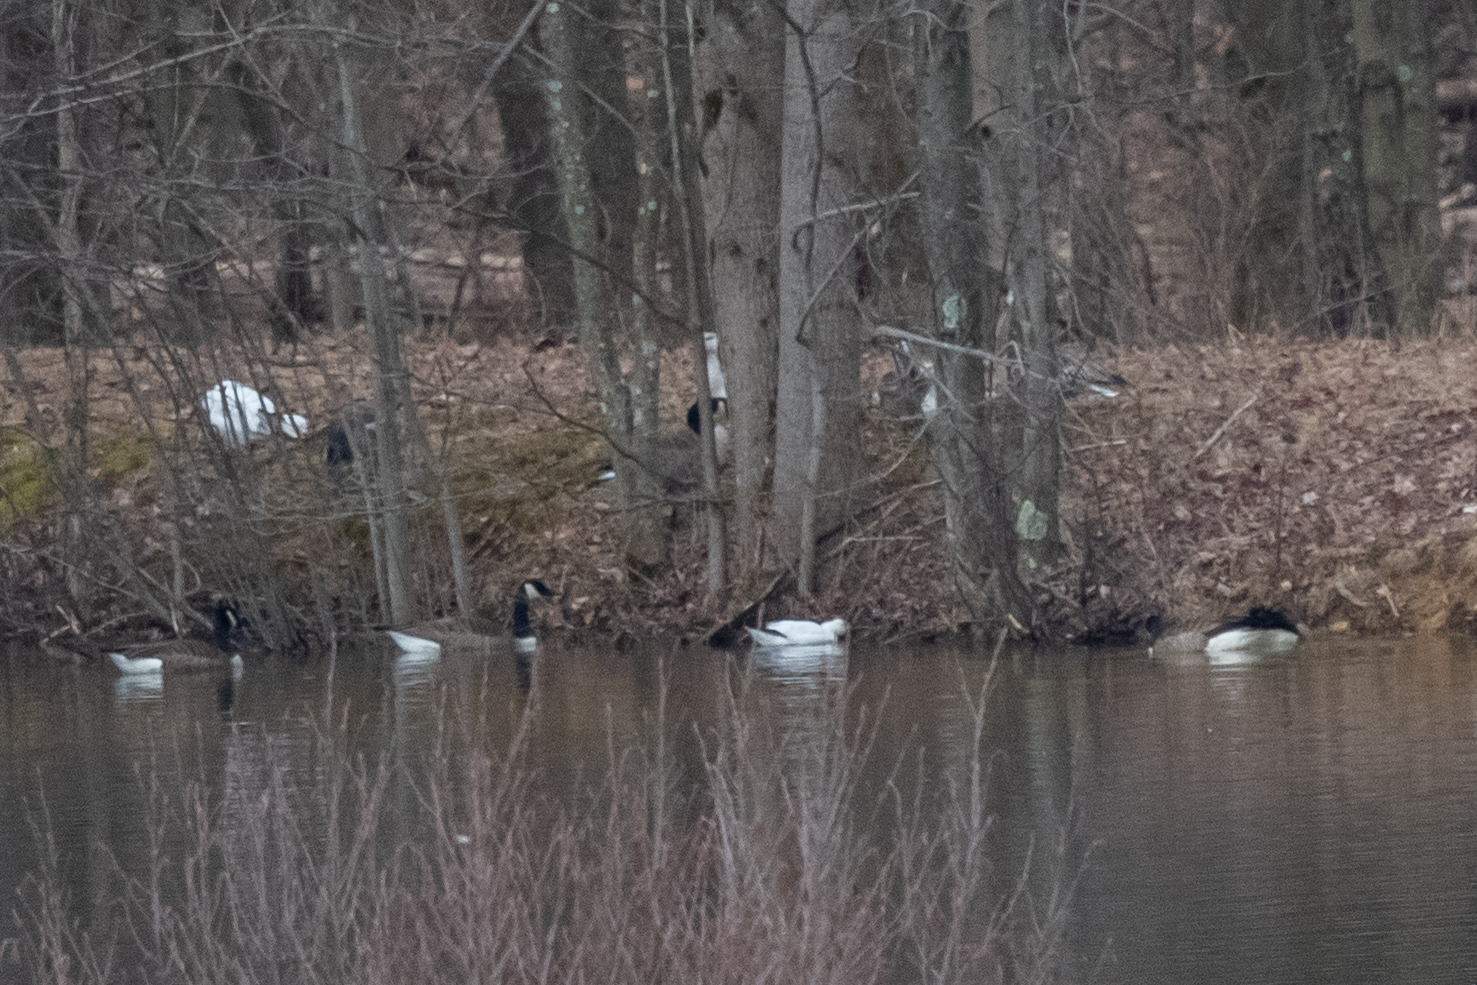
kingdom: Animalia
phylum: Chordata
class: Aves
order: Anseriformes
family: Anatidae
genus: Branta
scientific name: Branta canadensis
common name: Canada goose
